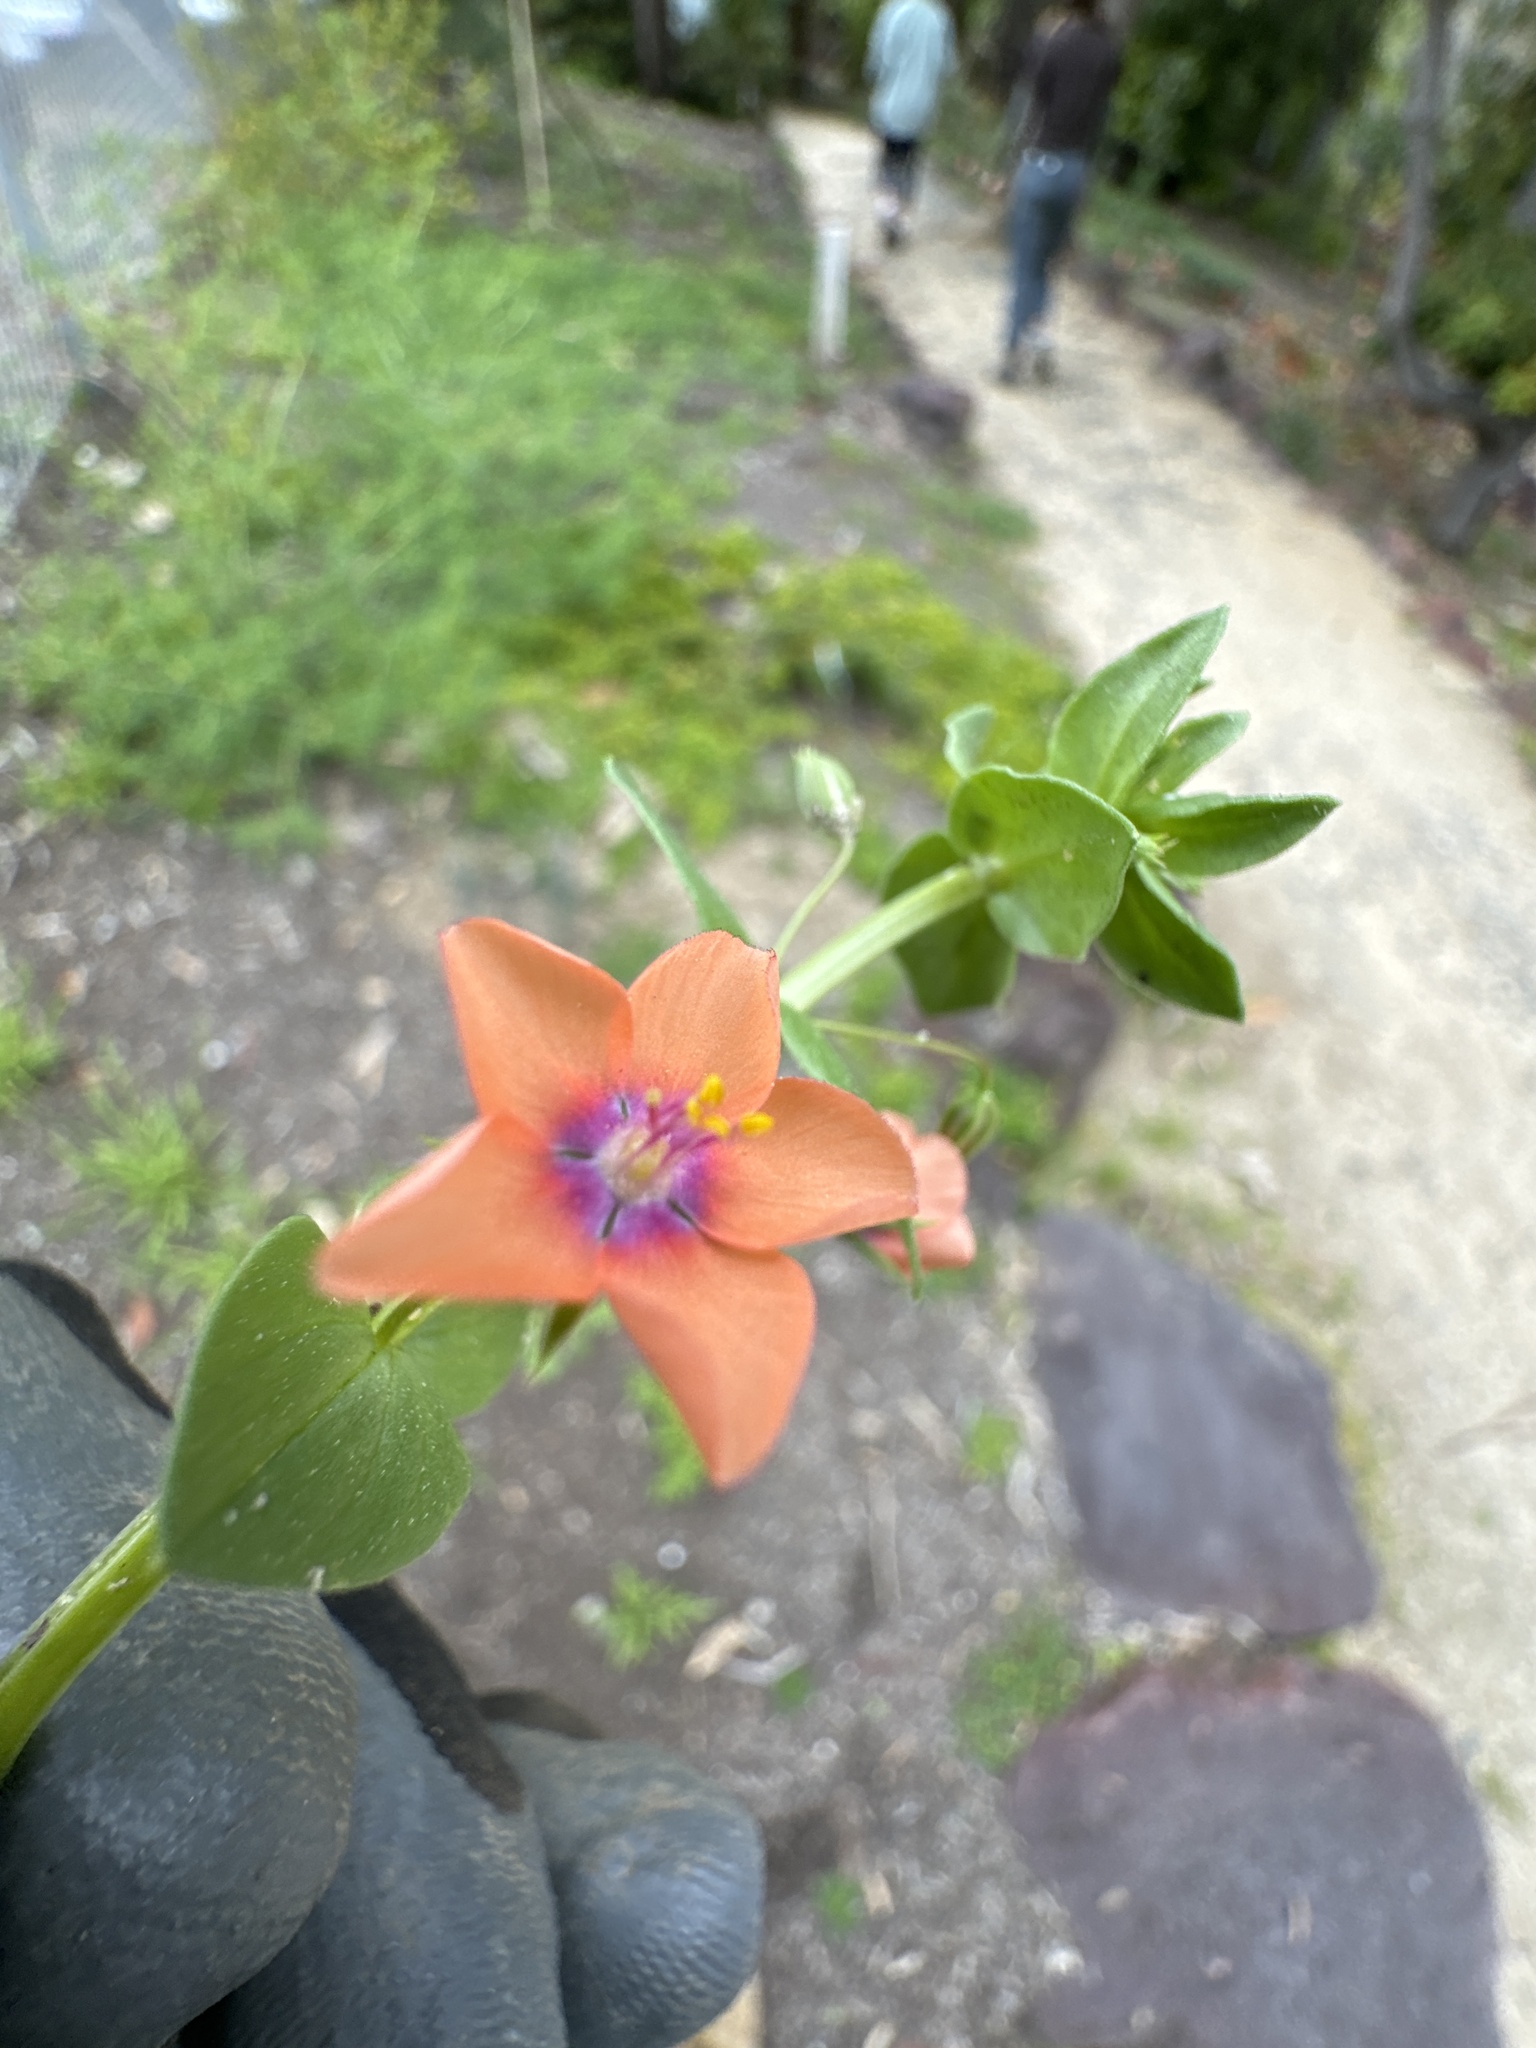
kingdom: Plantae
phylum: Tracheophyta
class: Magnoliopsida
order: Ericales
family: Primulaceae
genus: Lysimachia
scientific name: Lysimachia arvensis
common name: Scarlet pimpernel
